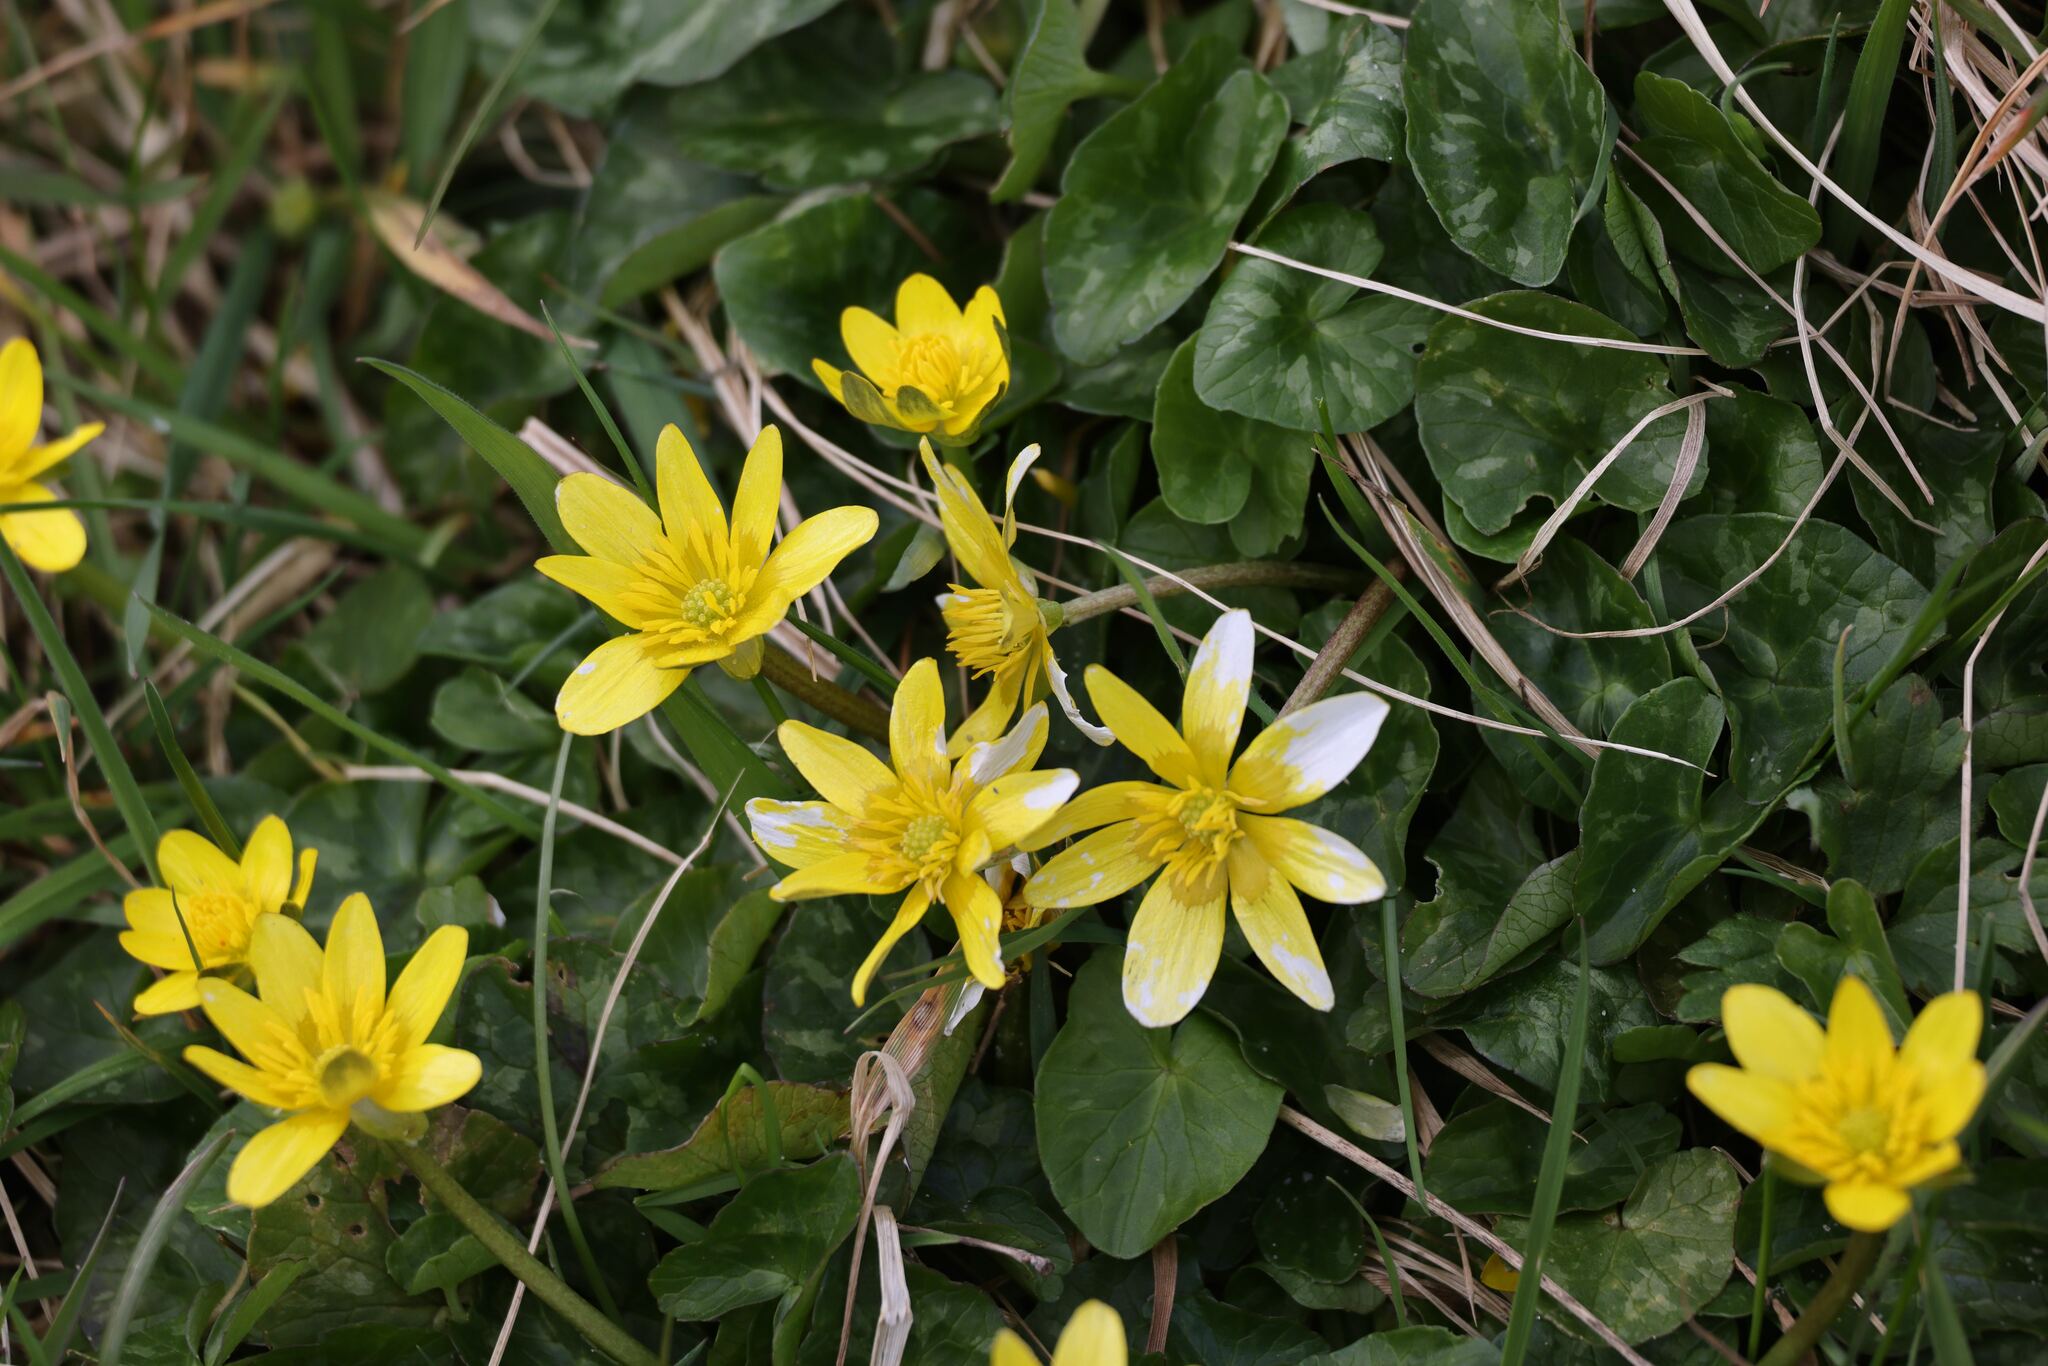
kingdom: Plantae
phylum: Tracheophyta
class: Magnoliopsida
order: Ranunculales
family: Ranunculaceae
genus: Ficaria
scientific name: Ficaria verna
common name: Lesser celandine
